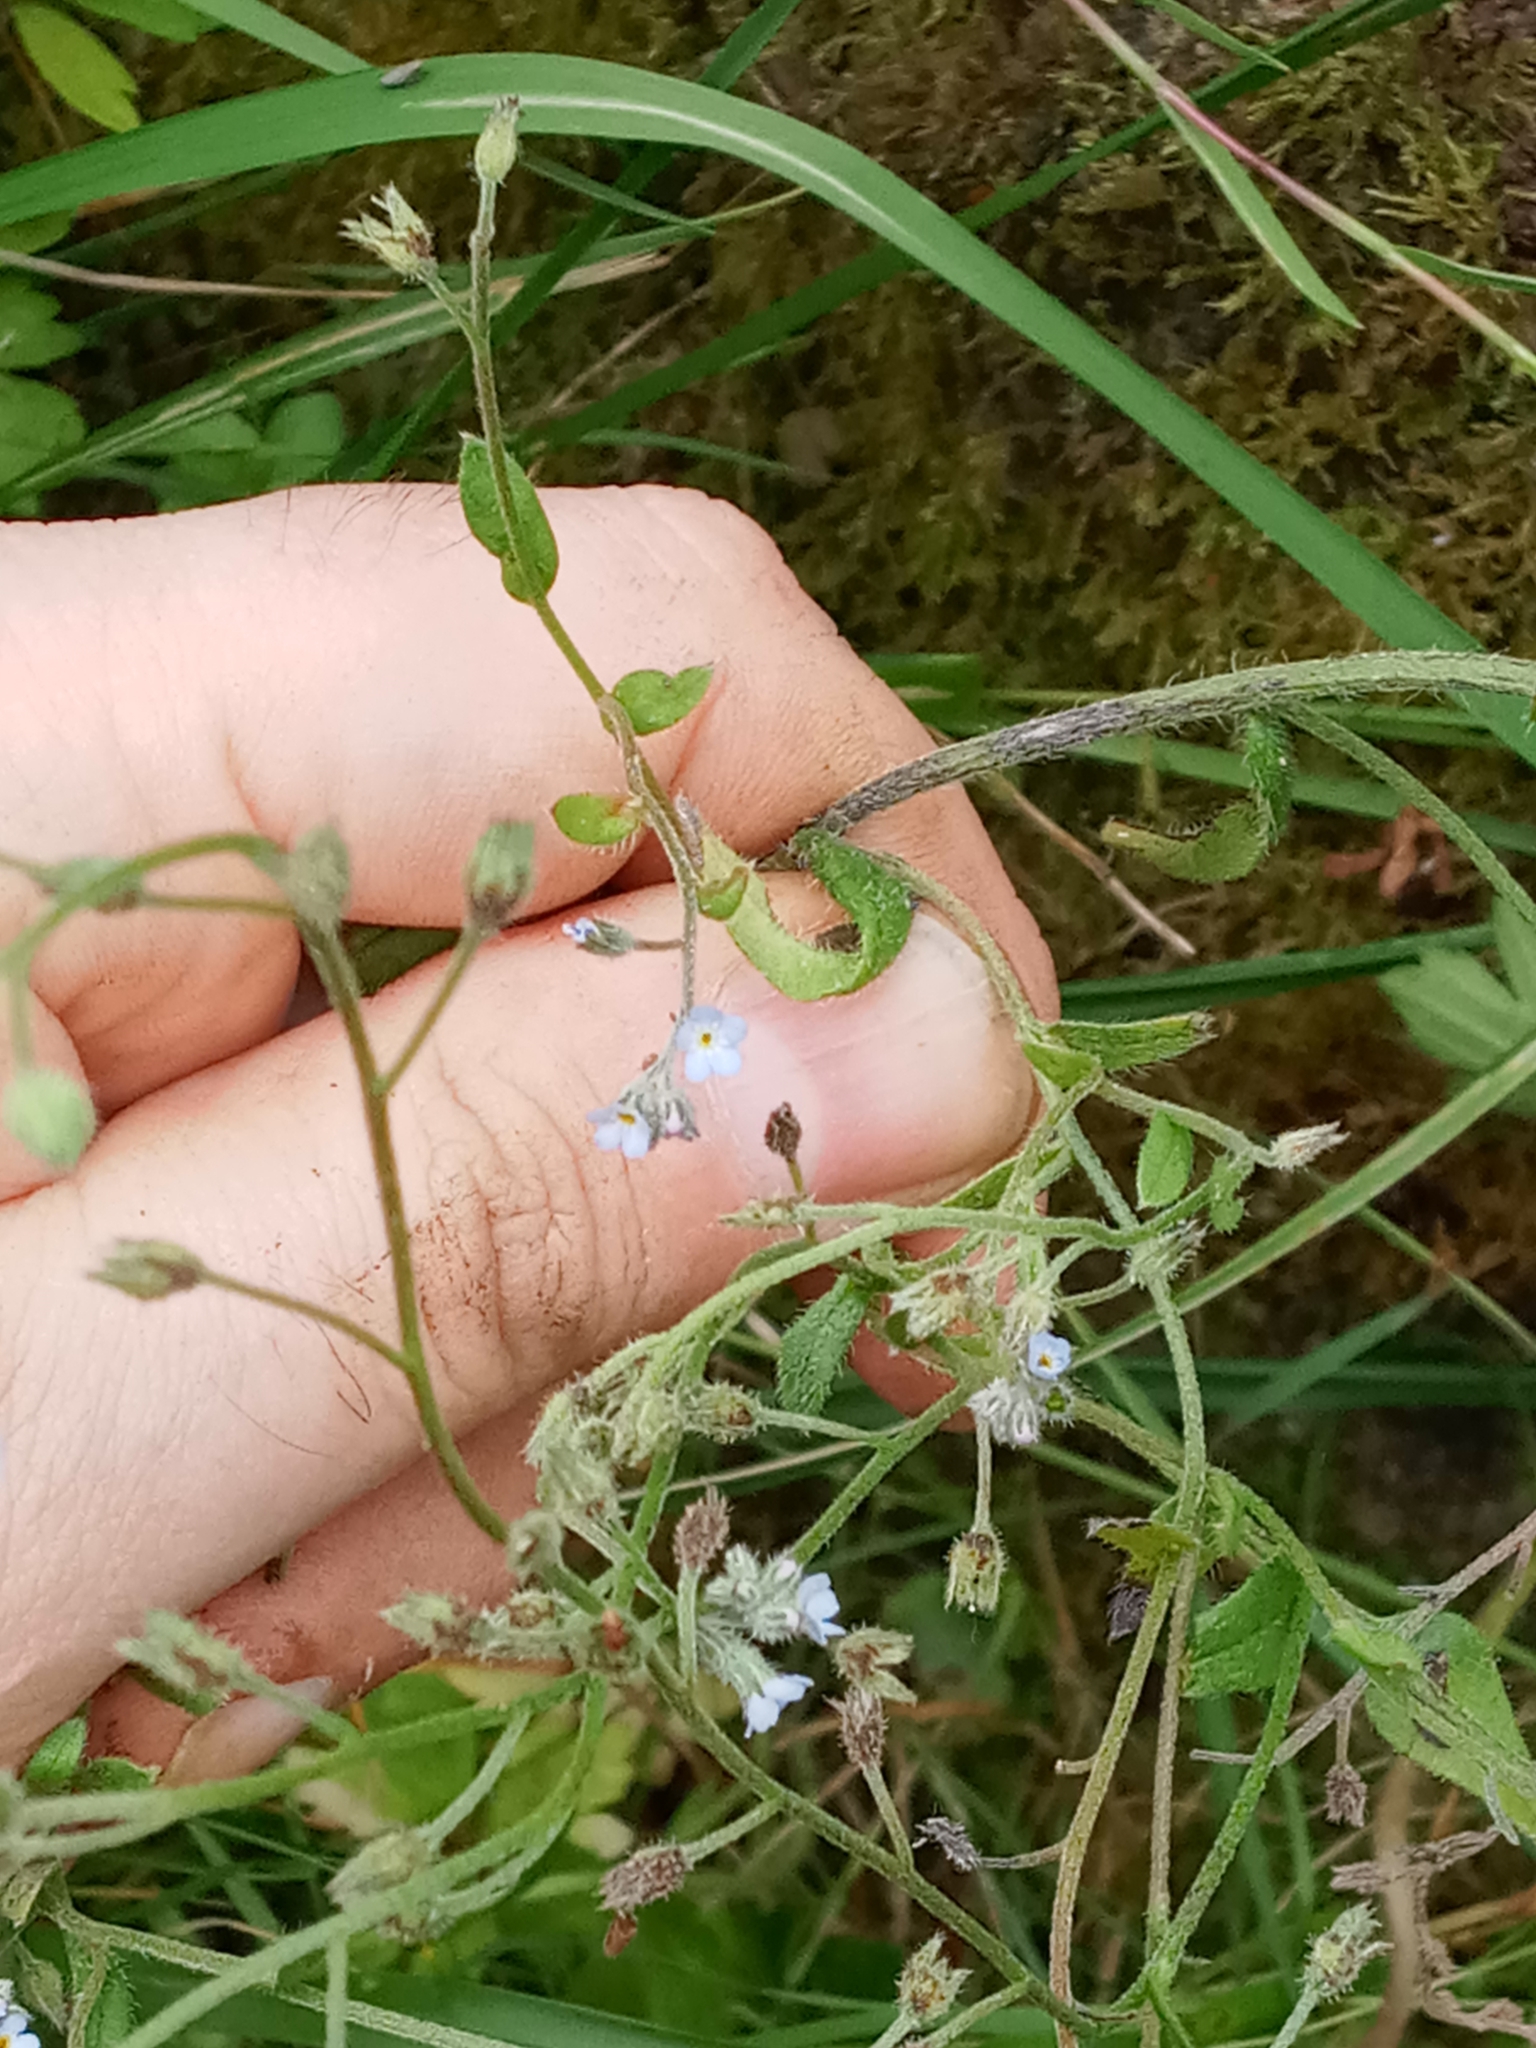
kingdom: Plantae
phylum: Tracheophyta
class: Magnoliopsida
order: Boraginales
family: Boraginaceae
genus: Myosotis
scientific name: Myosotis laxa
